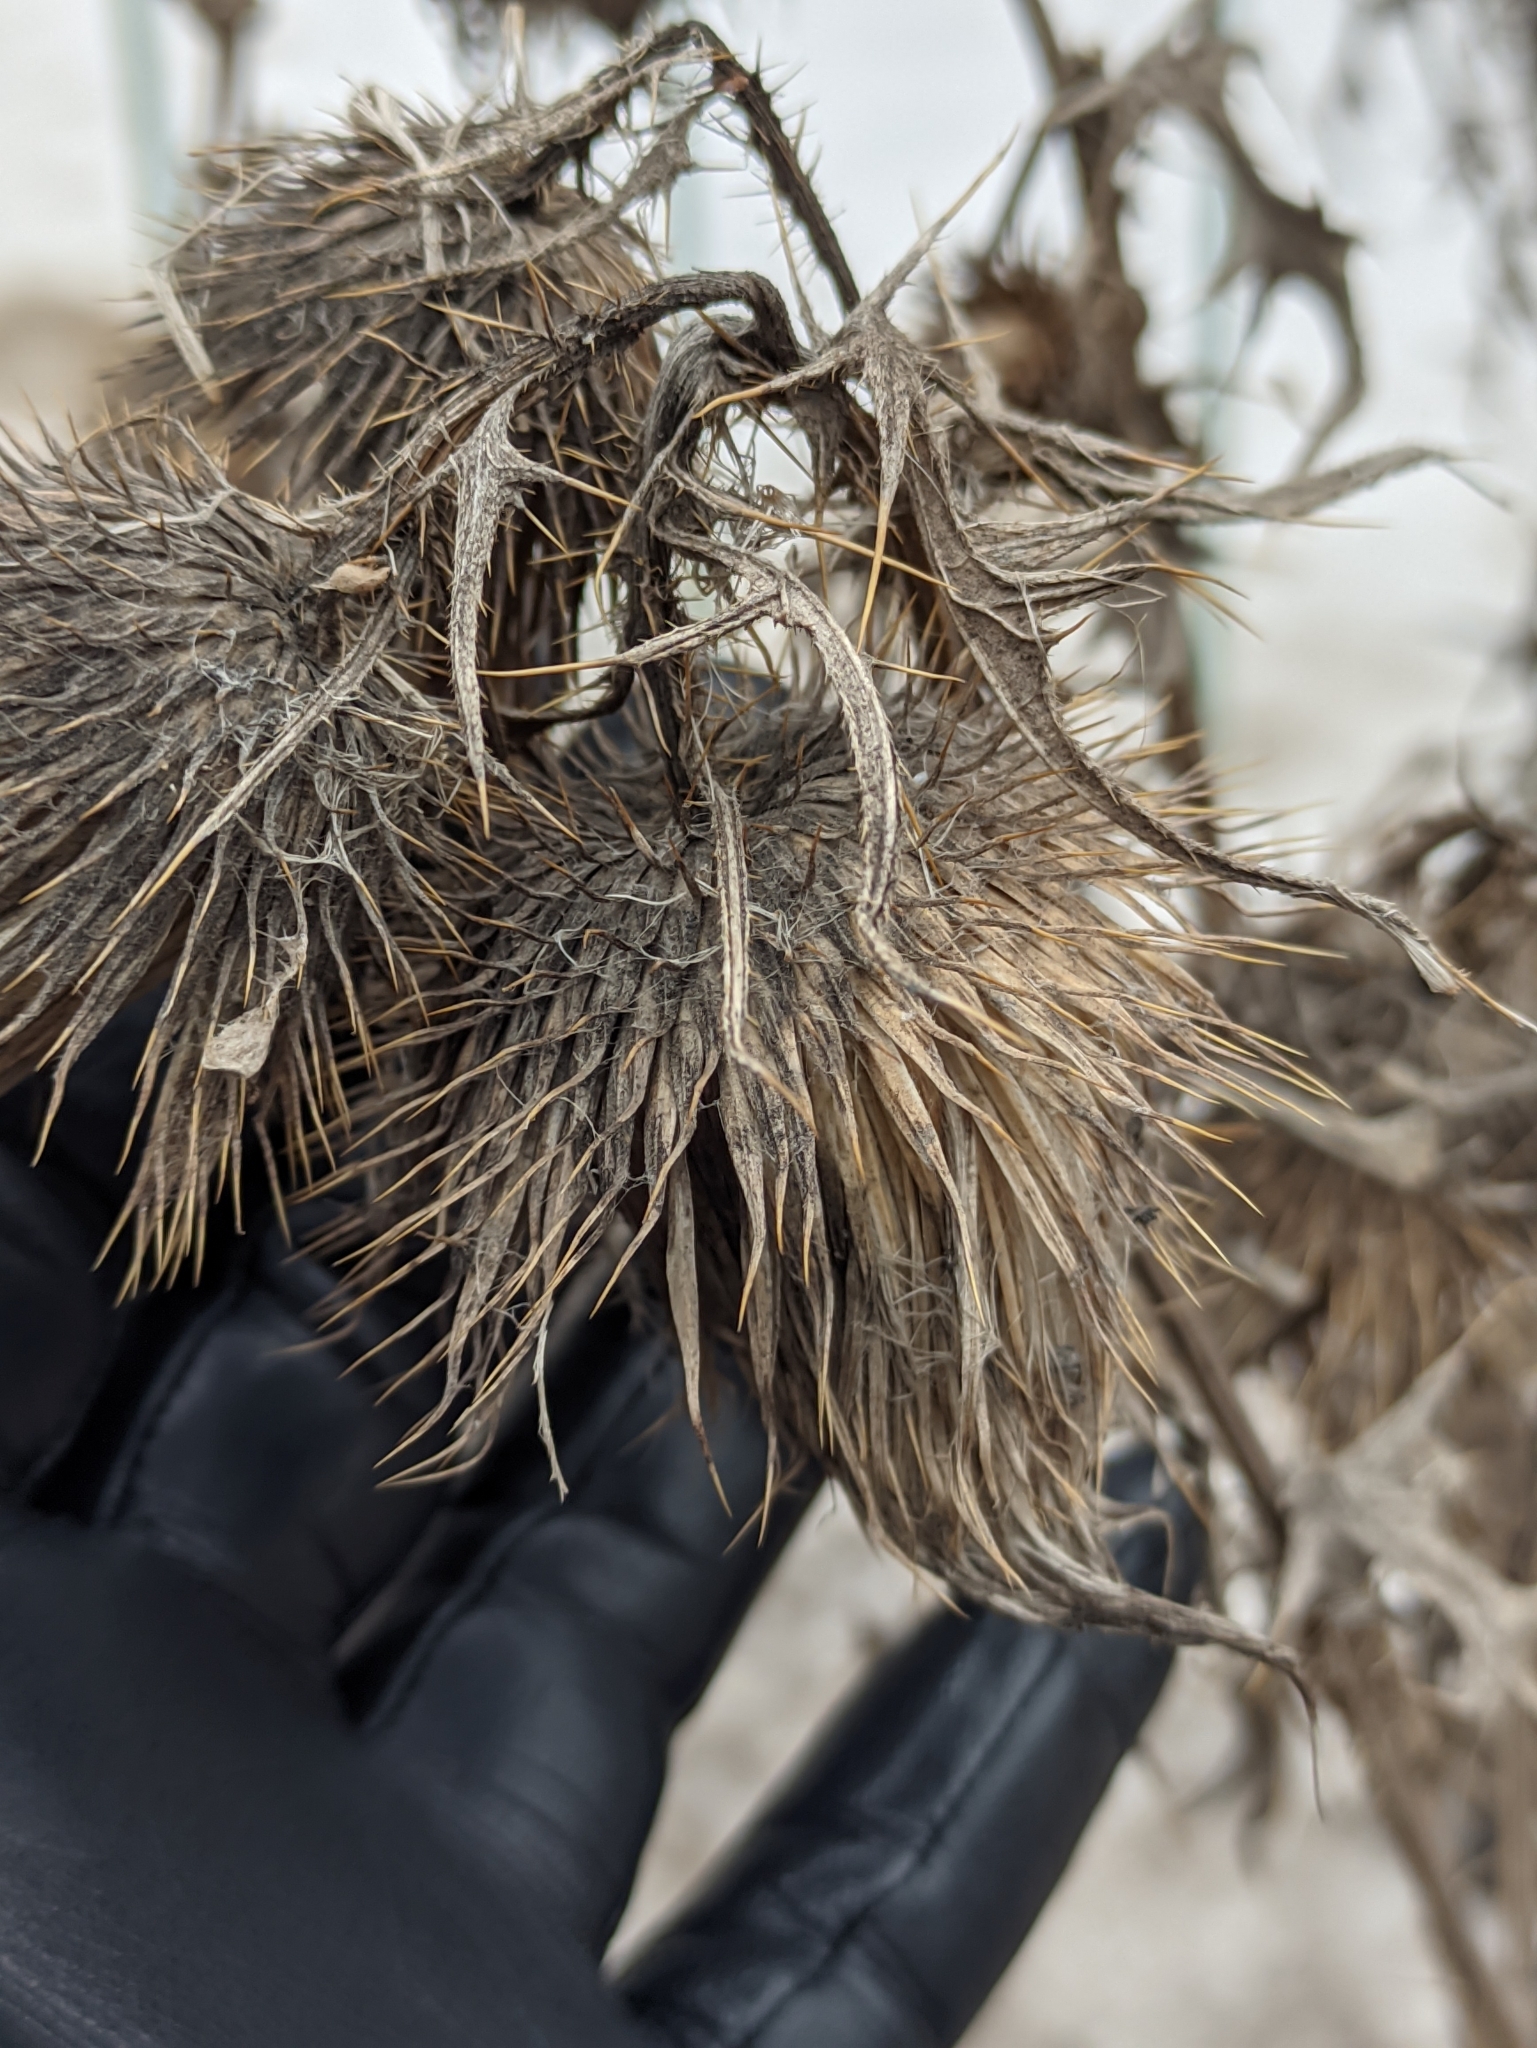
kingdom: Plantae
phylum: Tracheophyta
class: Magnoliopsida
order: Asterales
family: Asteraceae
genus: Cirsium
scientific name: Cirsium vulgare
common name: Bull thistle
